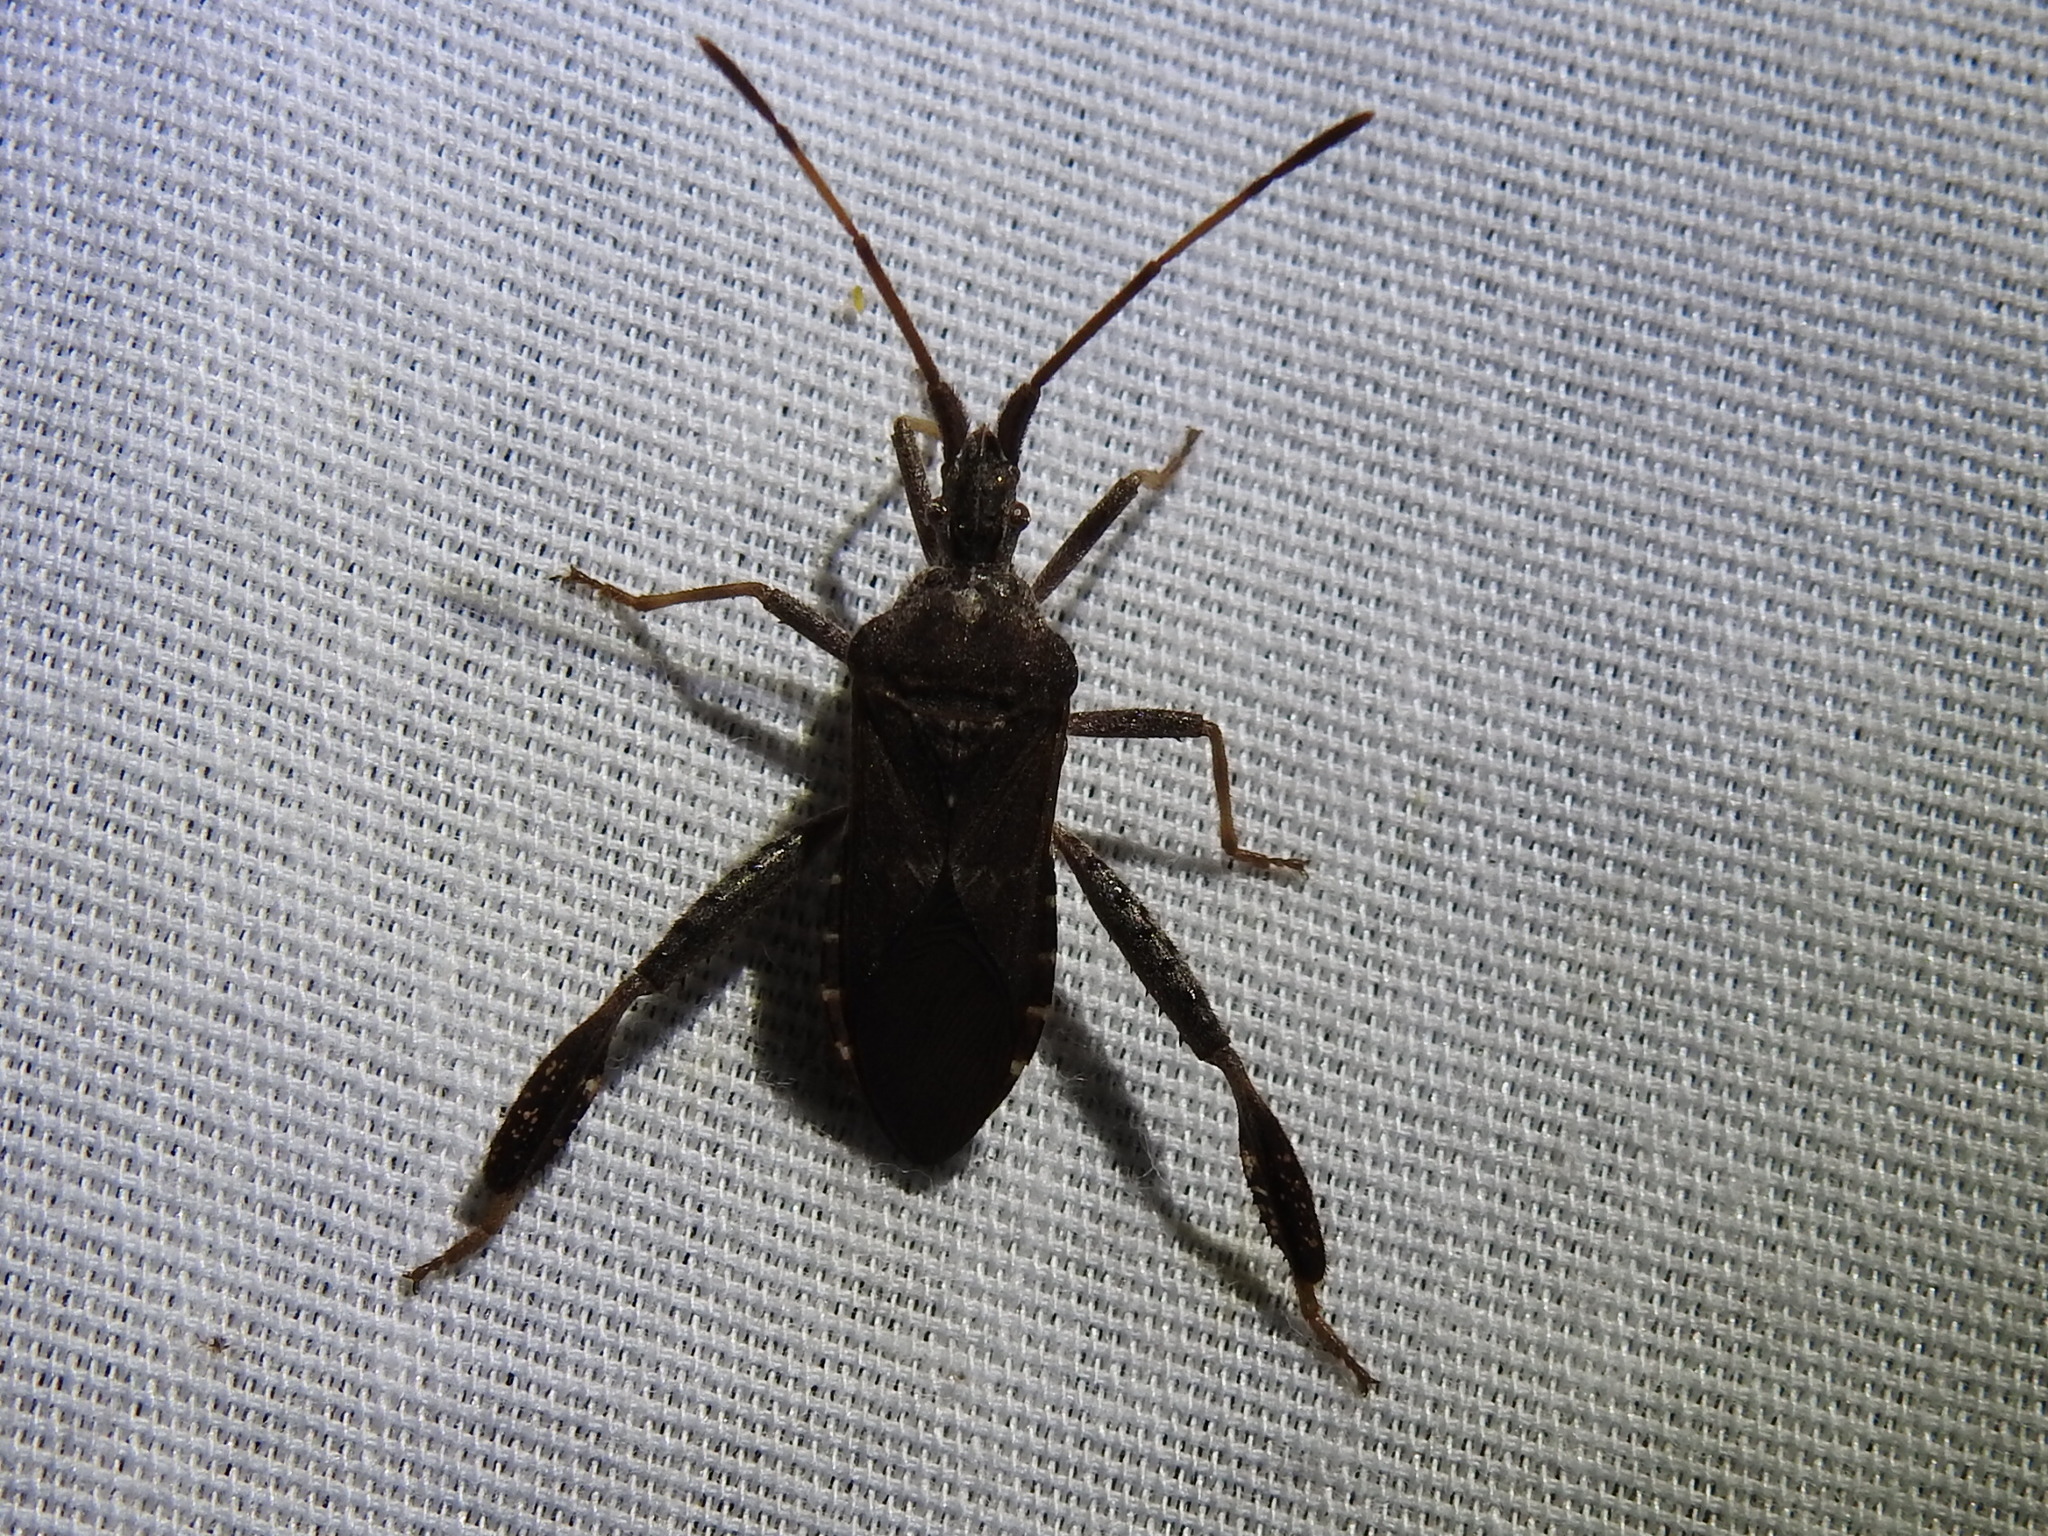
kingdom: Animalia
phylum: Arthropoda
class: Insecta
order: Hemiptera
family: Coreidae
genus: Leptoglossus
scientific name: Leptoglossus corculus
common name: Southern pine seed bug
